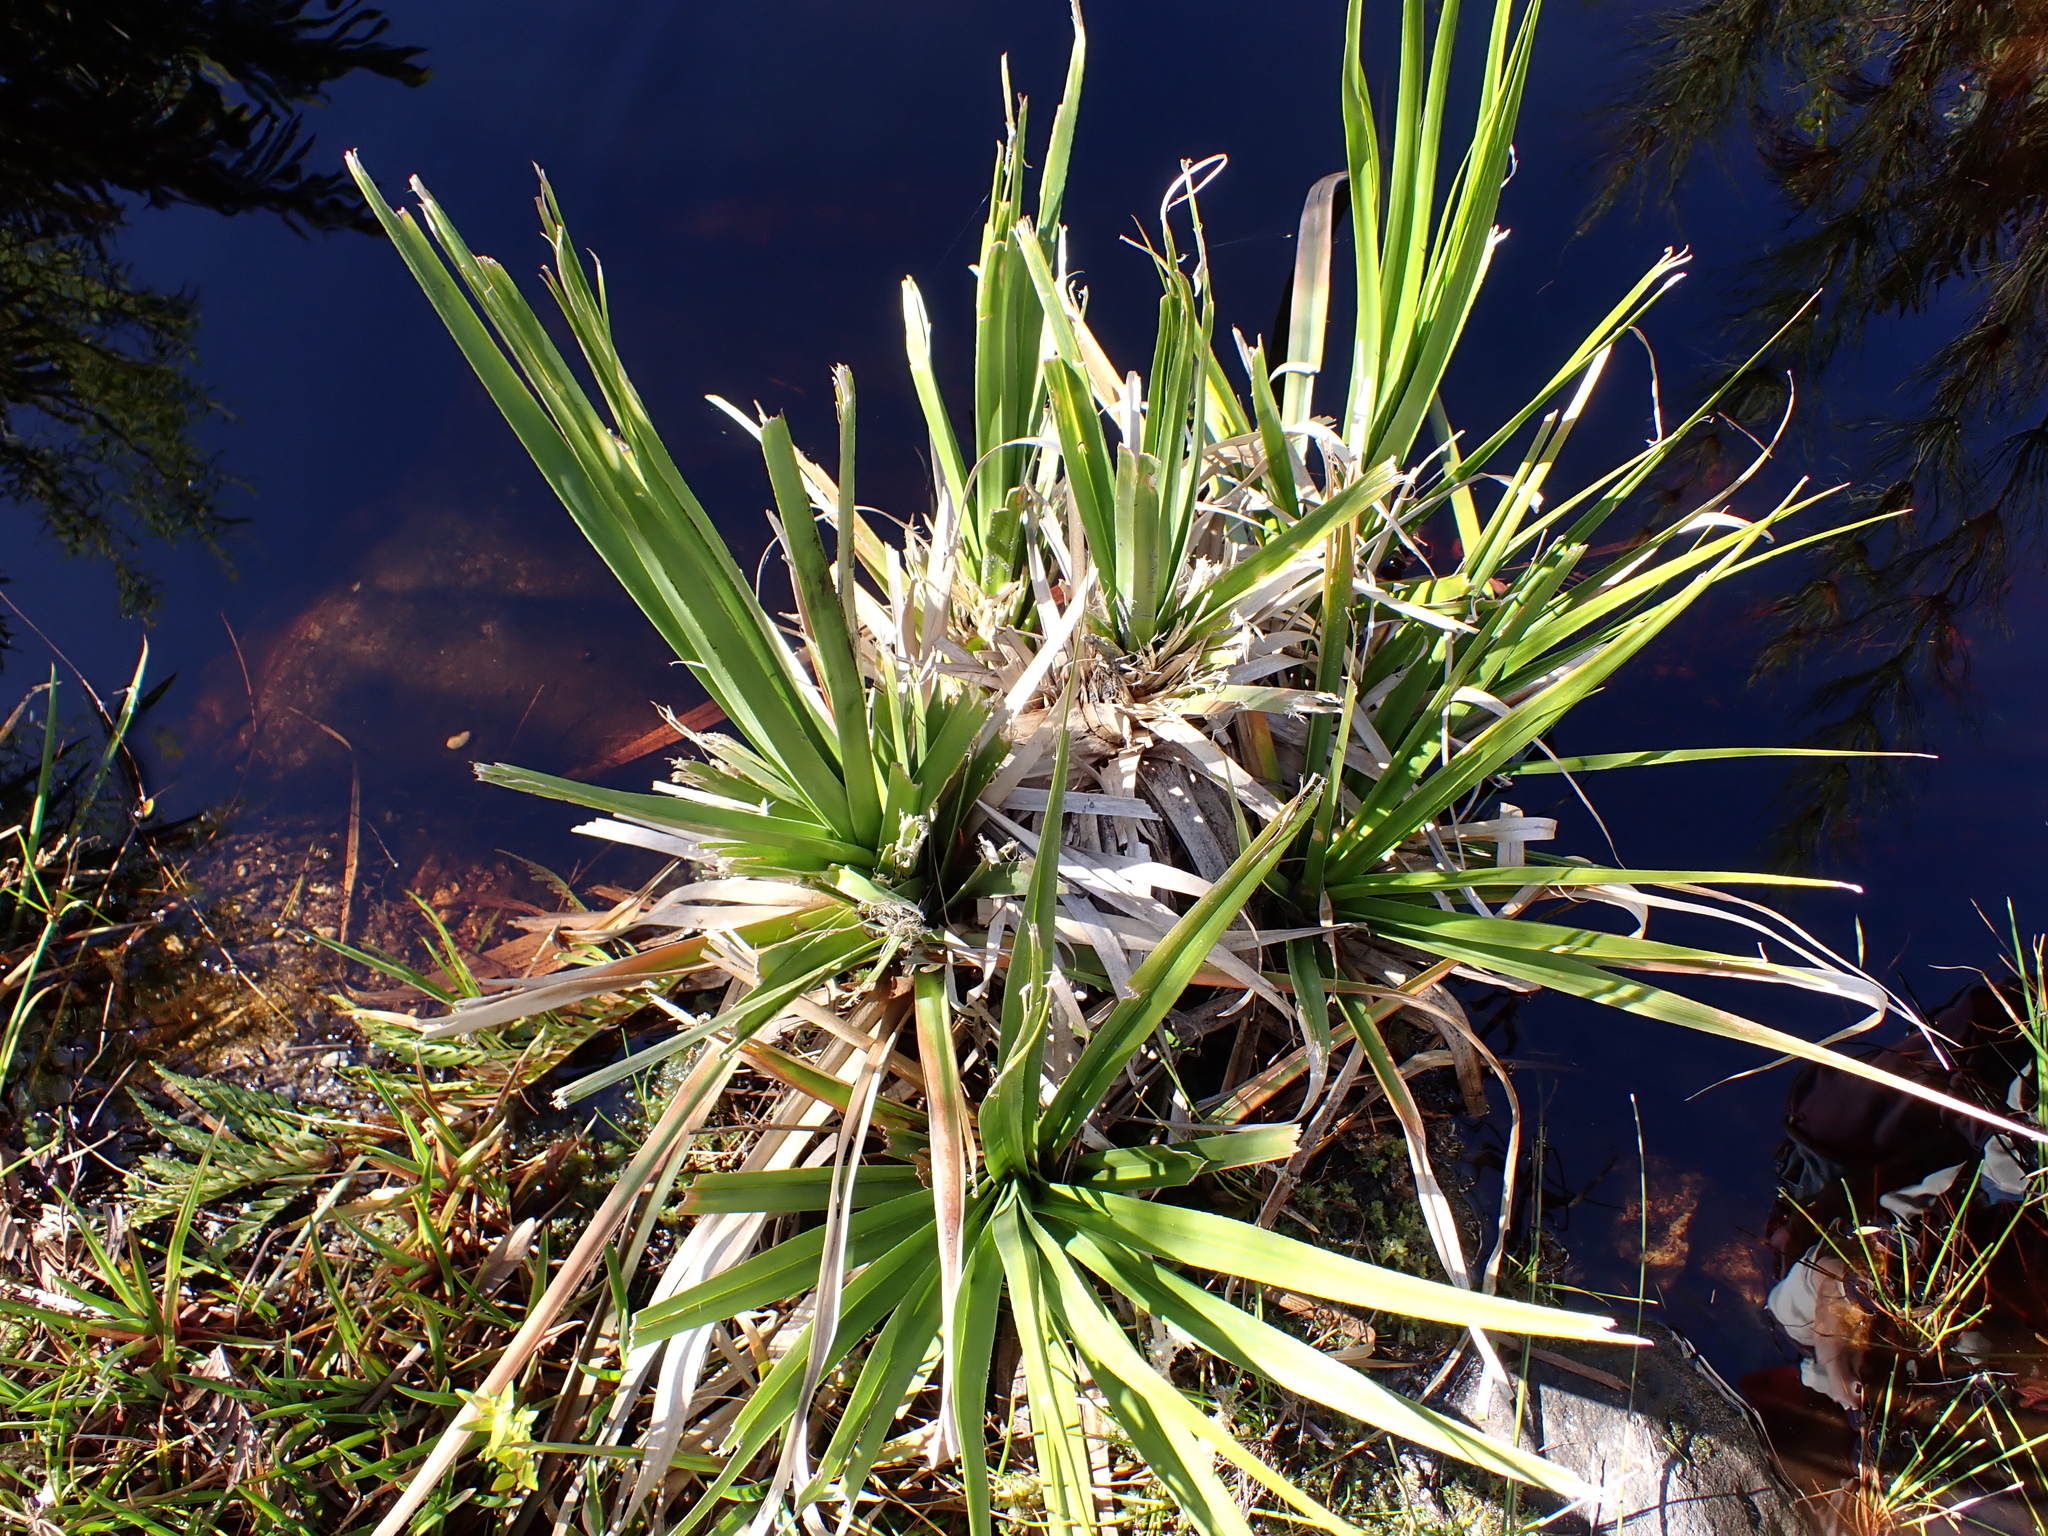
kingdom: Plantae
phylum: Tracheophyta
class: Liliopsida
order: Poales
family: Thurniaceae
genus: Prionium
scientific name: Prionium serratum
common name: Palmiet
